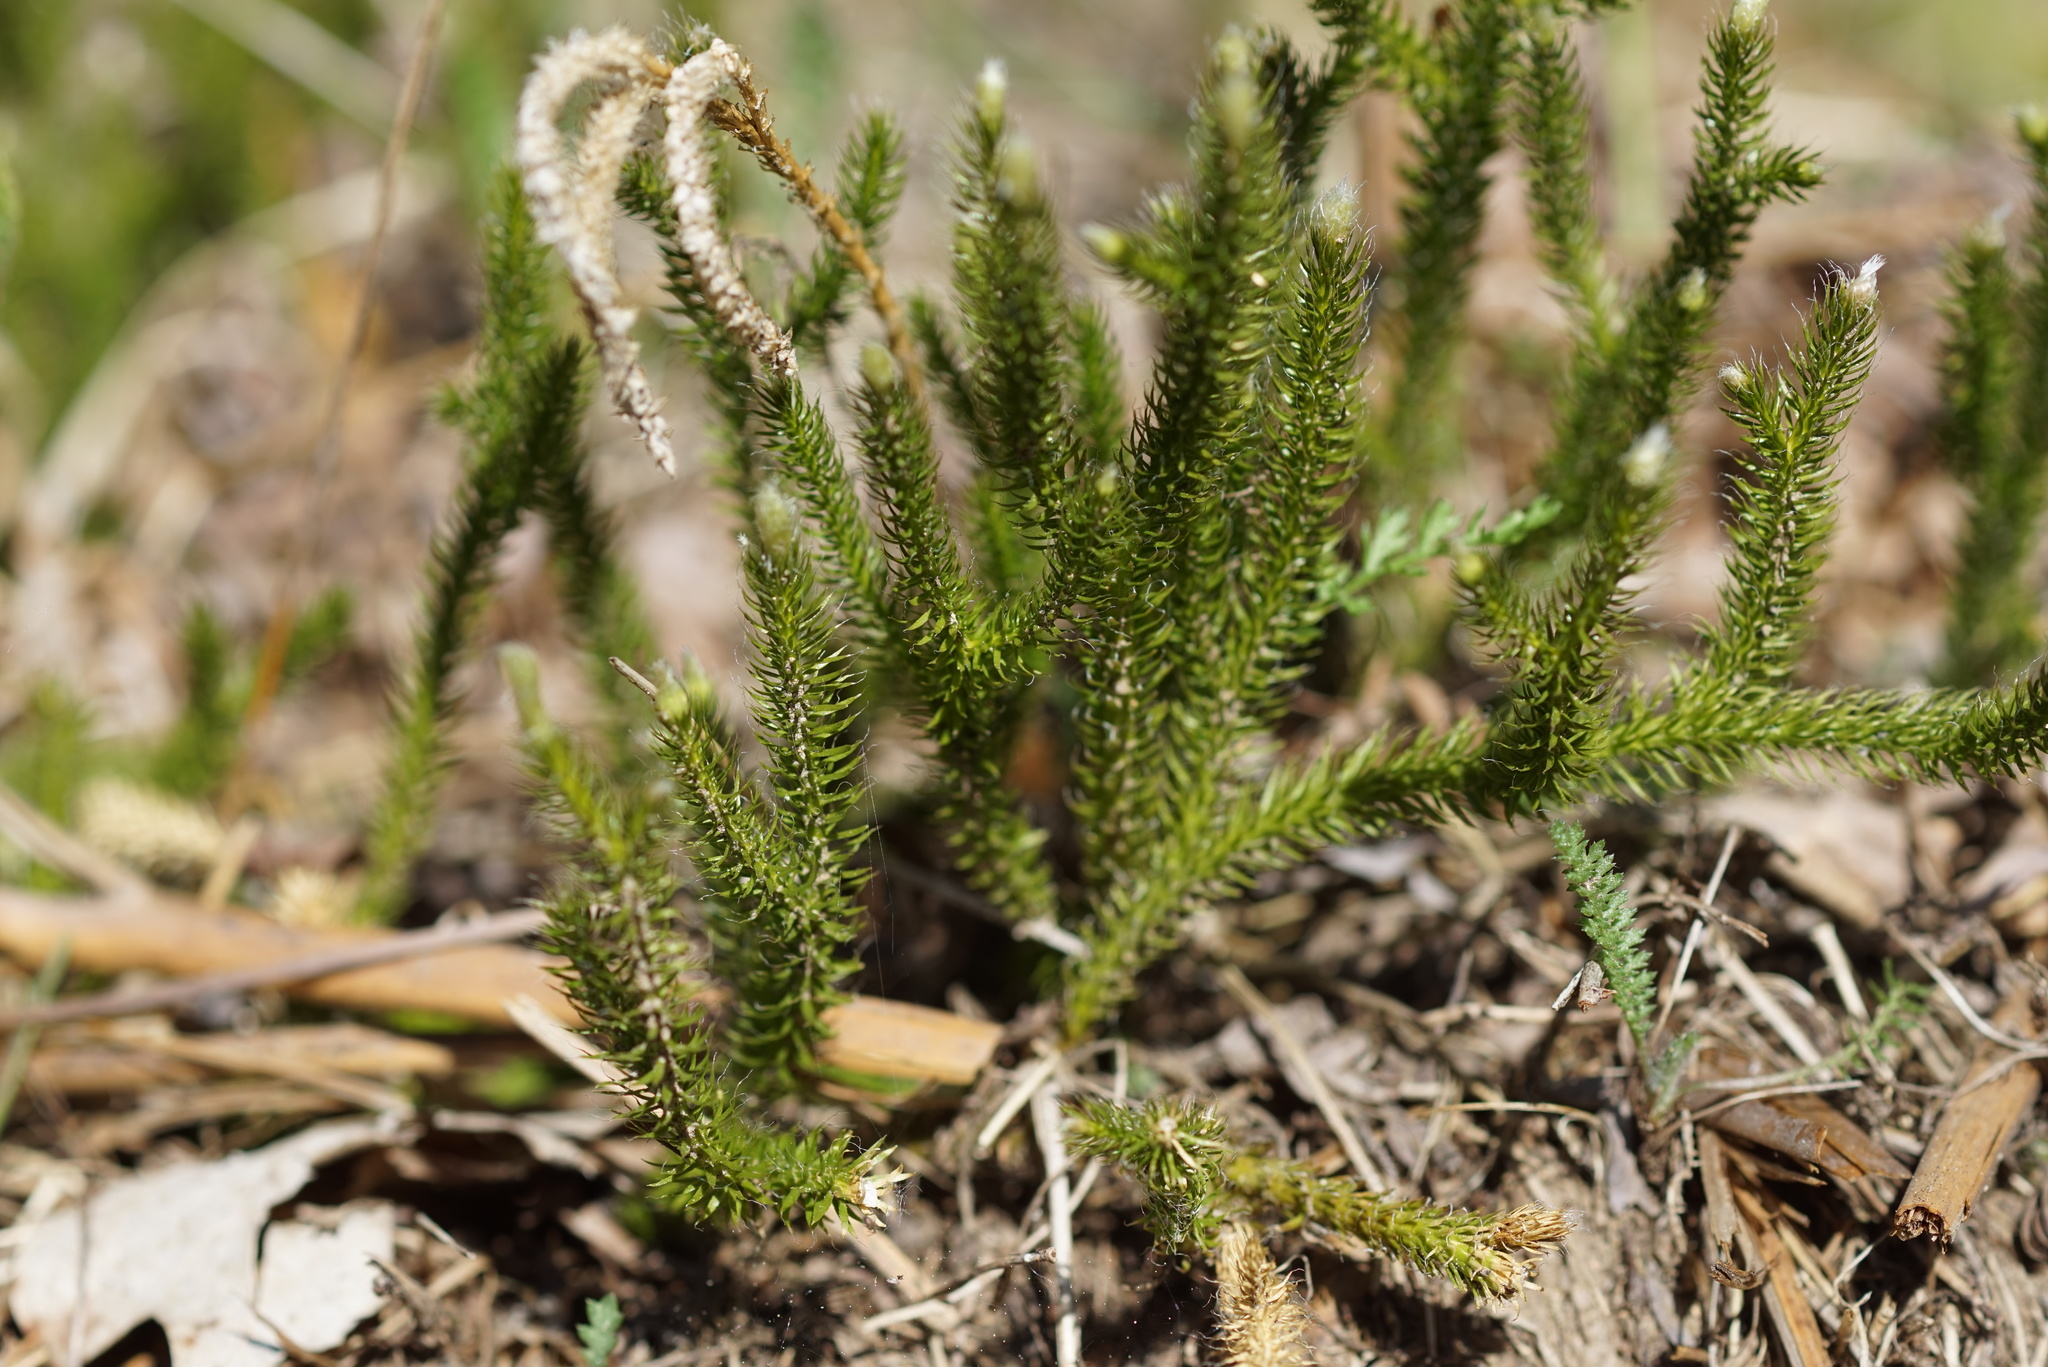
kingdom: Plantae
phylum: Tracheophyta
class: Lycopodiopsida
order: Lycopodiales
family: Lycopodiaceae
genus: Lycopodium
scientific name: Lycopodium clavatum
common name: Stag's-horn clubmoss
